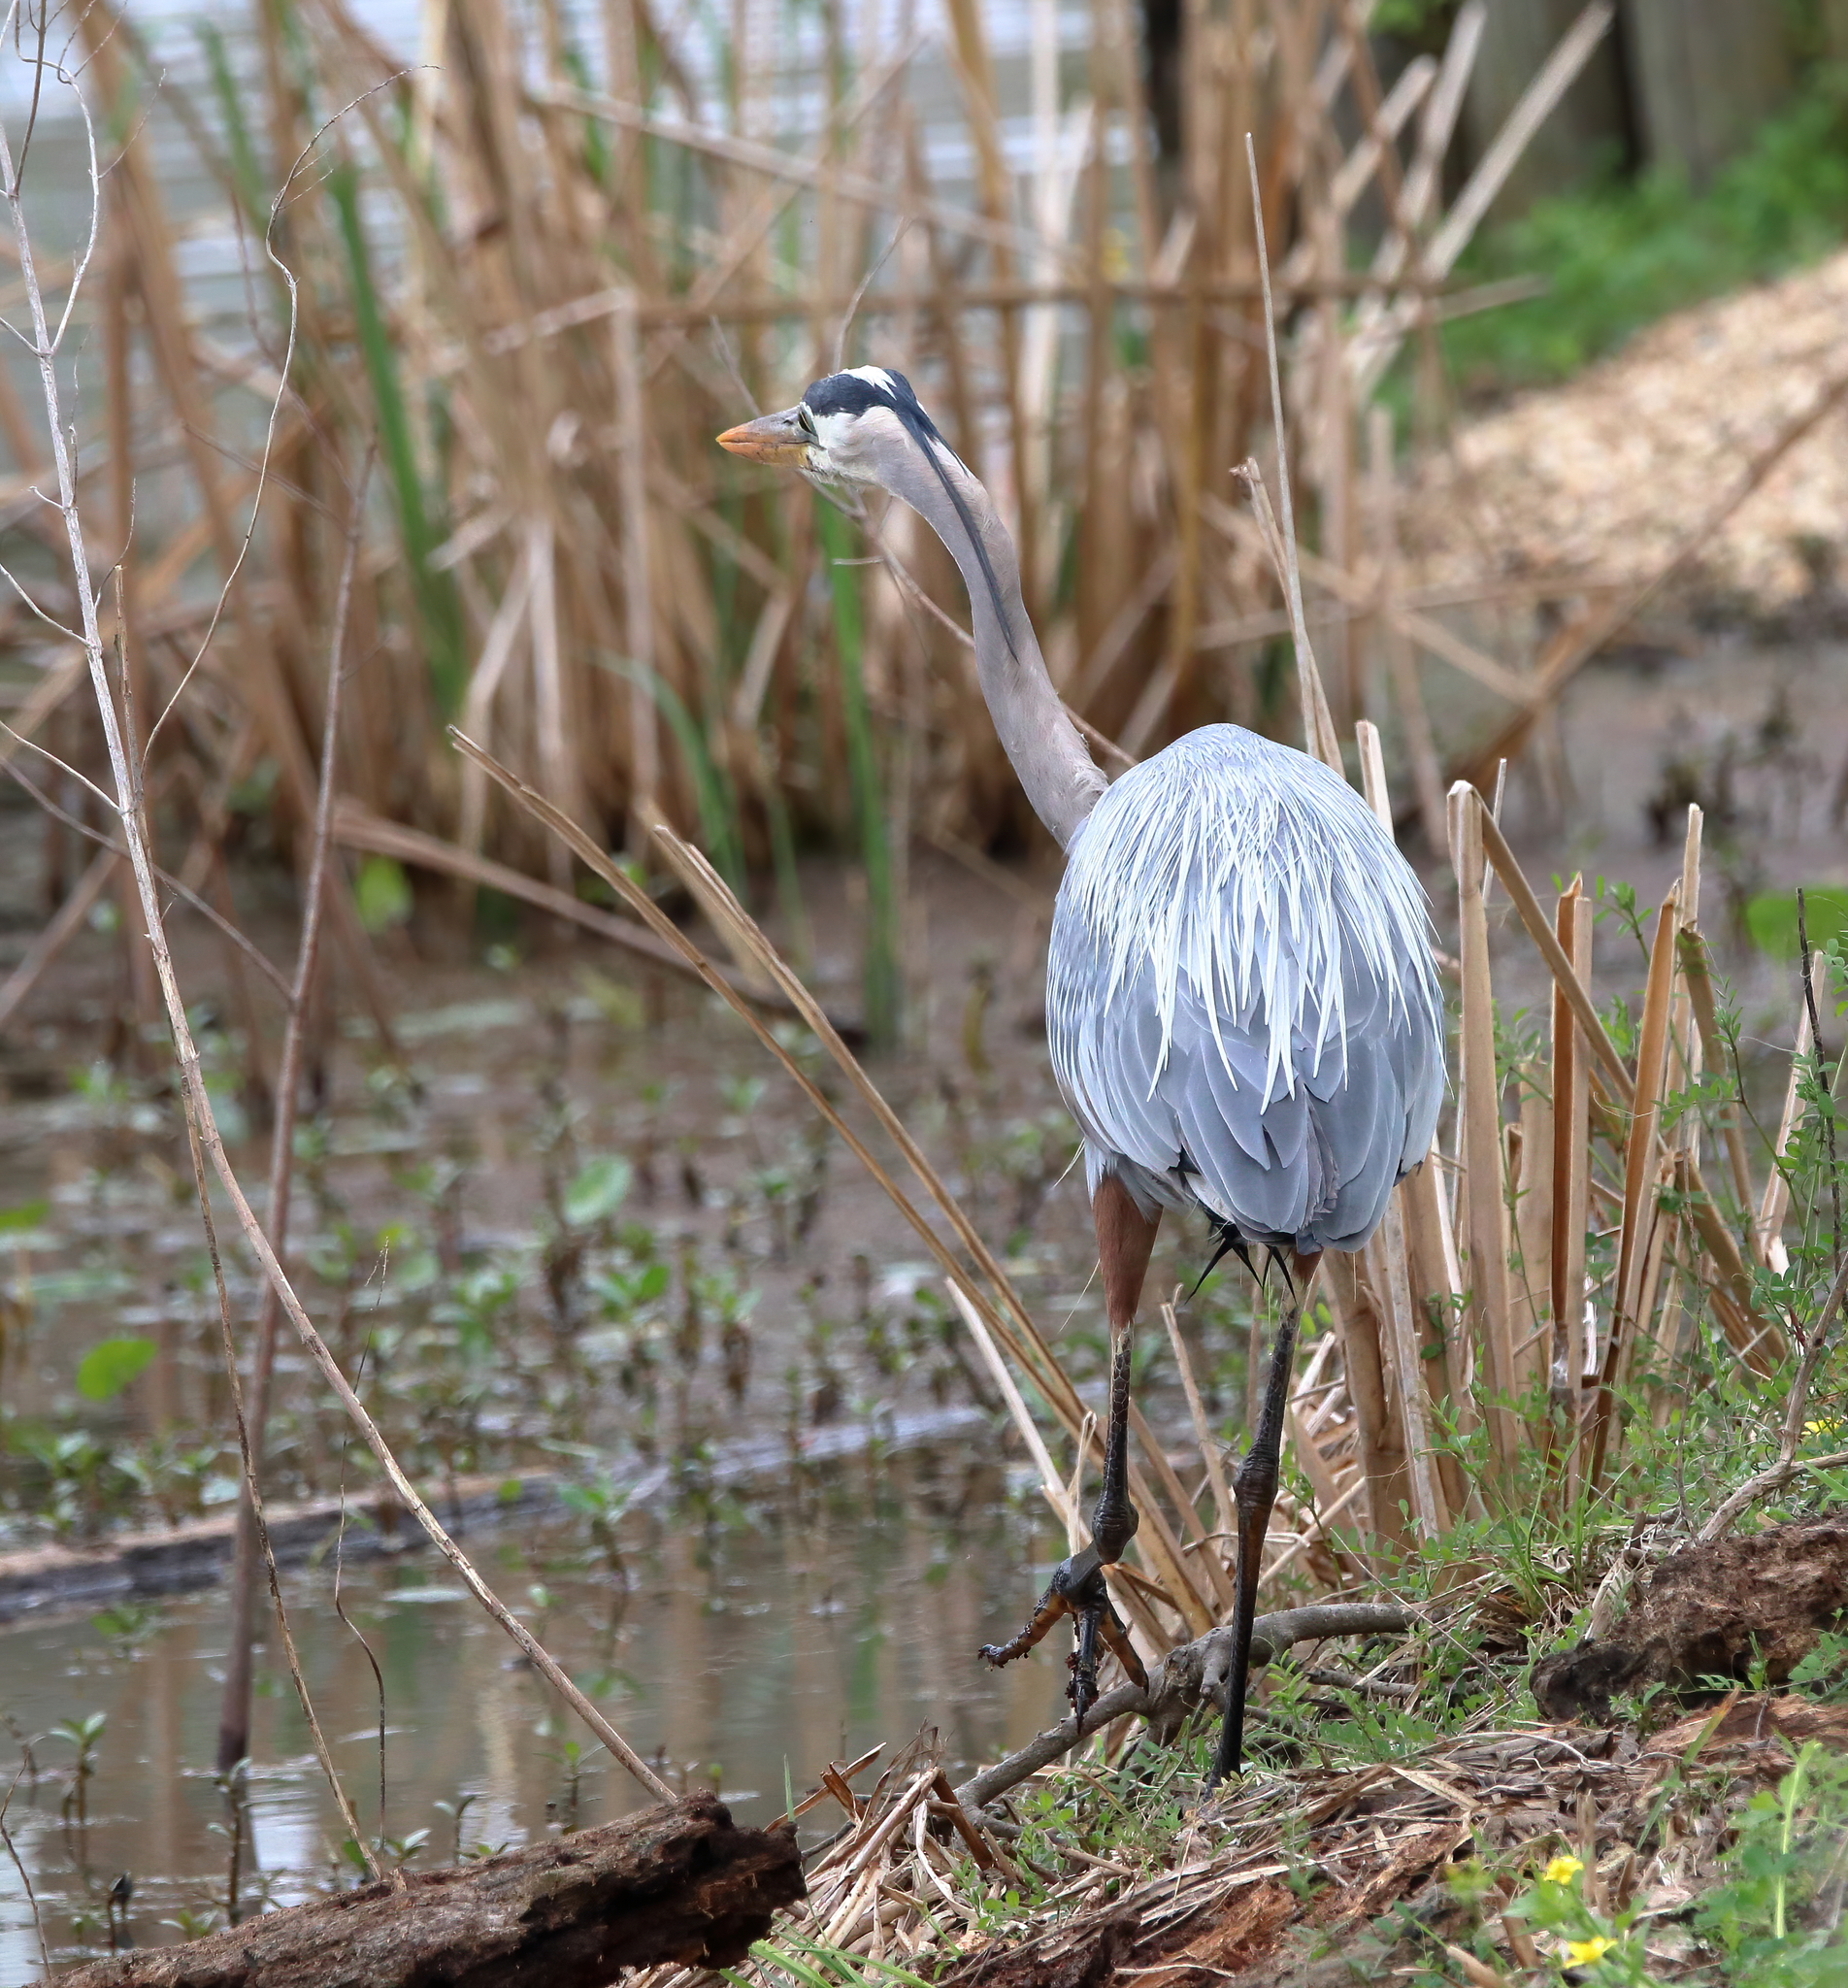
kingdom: Animalia
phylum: Chordata
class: Aves
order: Pelecaniformes
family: Ardeidae
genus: Ardea
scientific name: Ardea herodias
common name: Great blue heron
